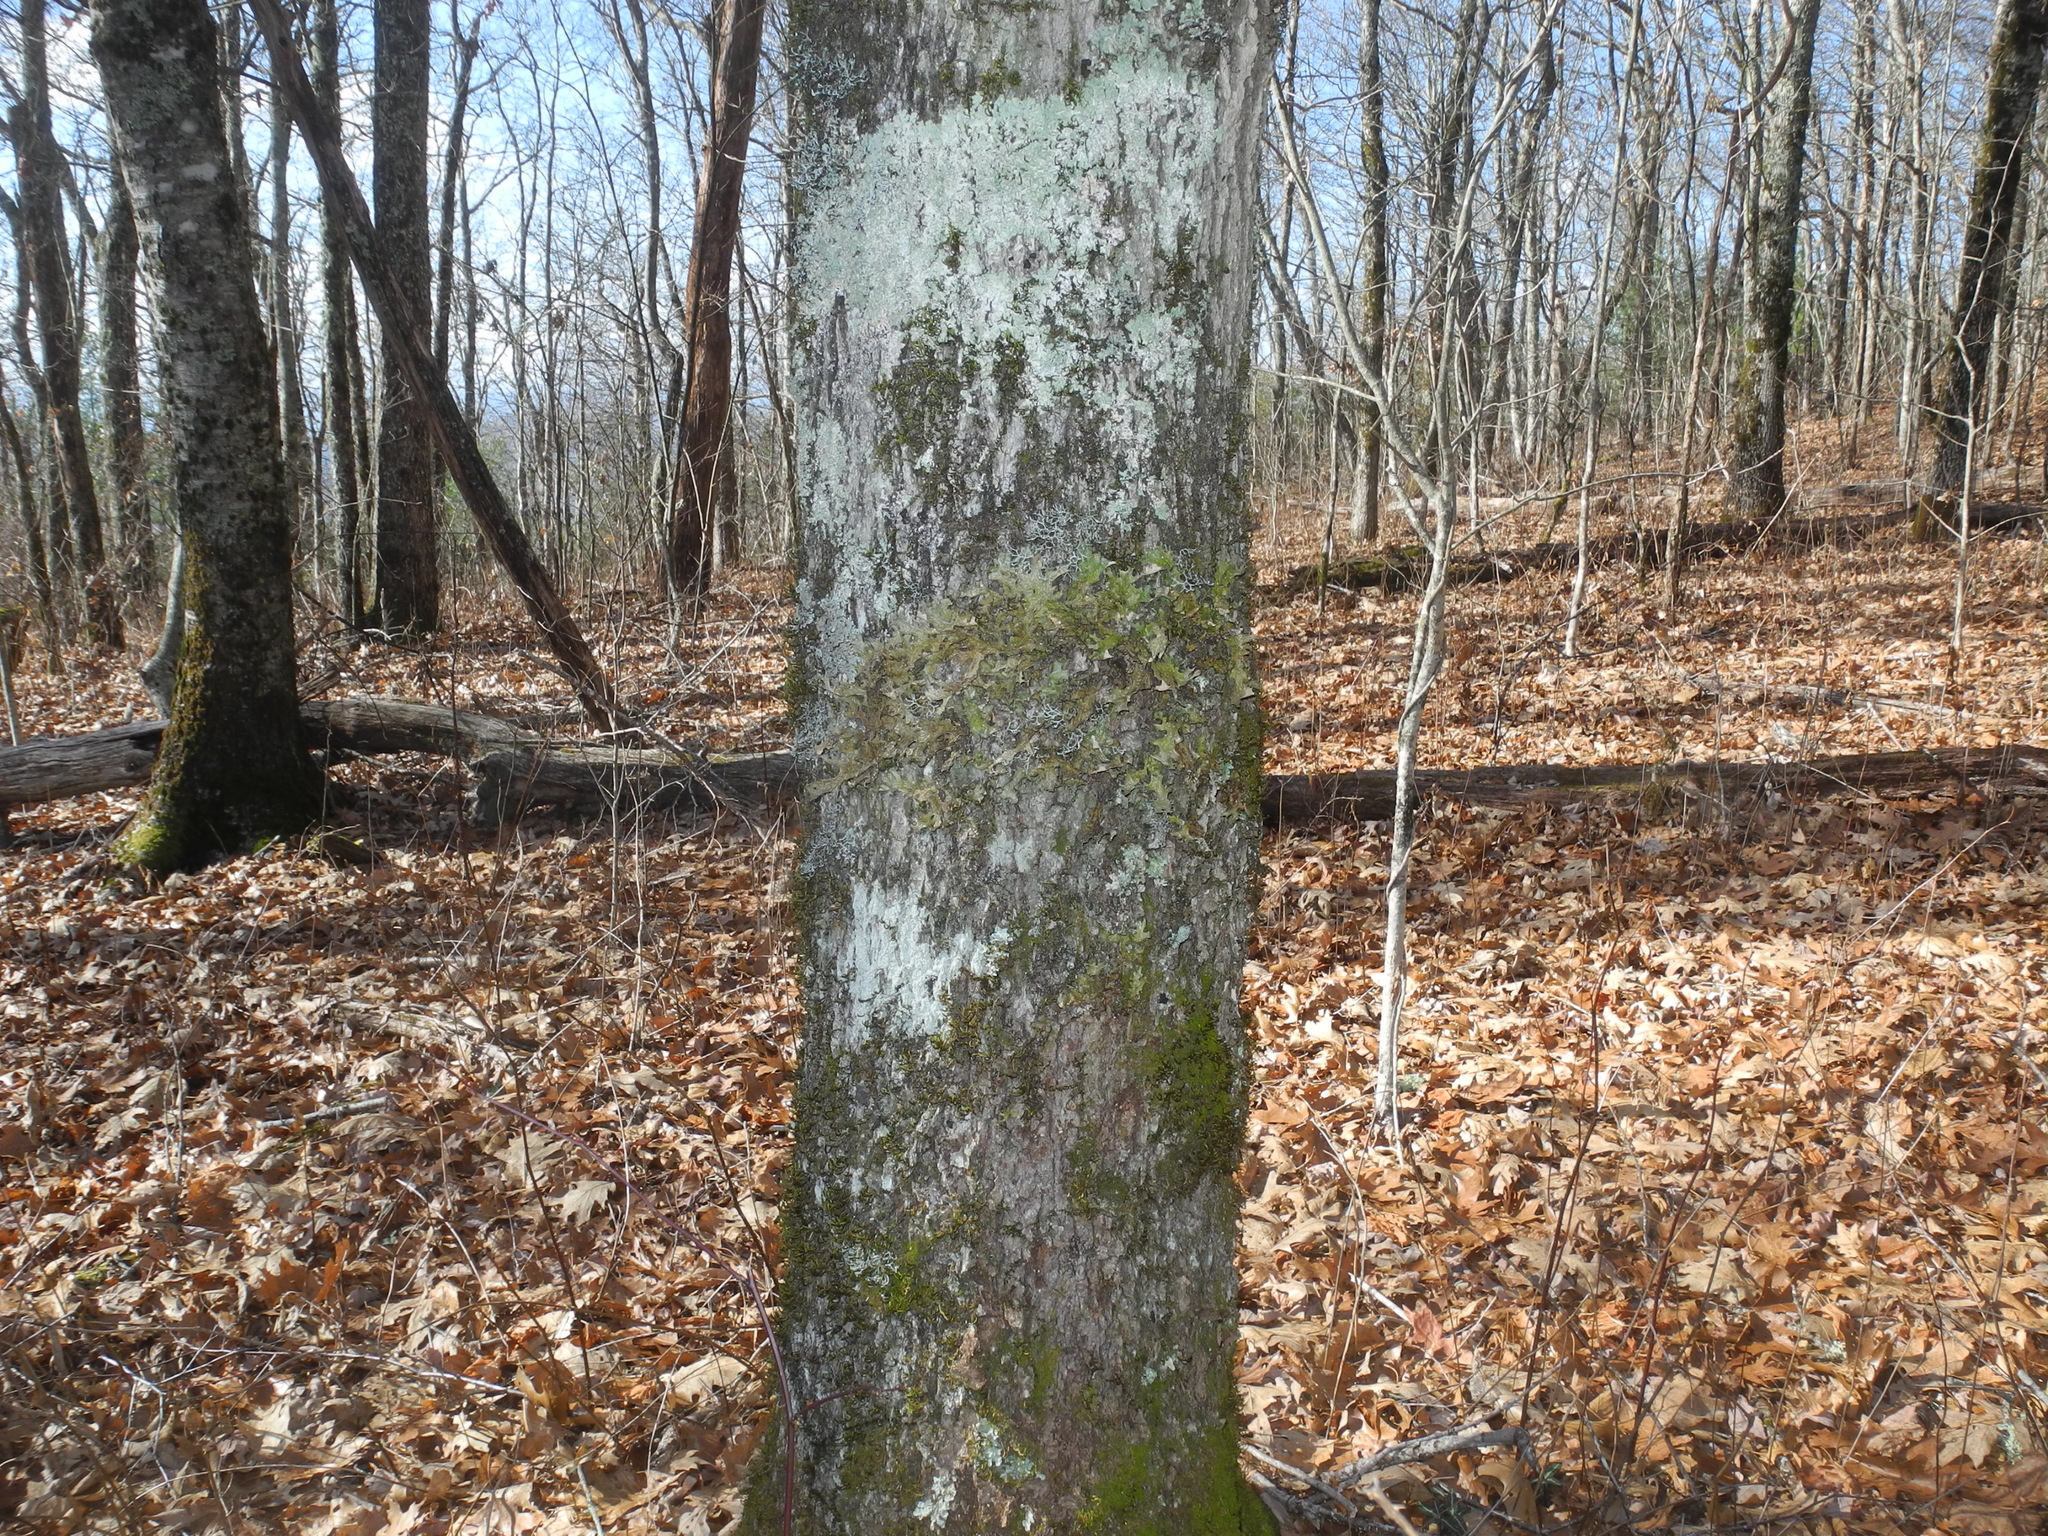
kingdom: Fungi
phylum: Ascomycota
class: Lecanoromycetes
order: Peltigerales
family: Lobariaceae
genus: Lobaria
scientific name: Lobaria pulmonaria
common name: Lungwort
